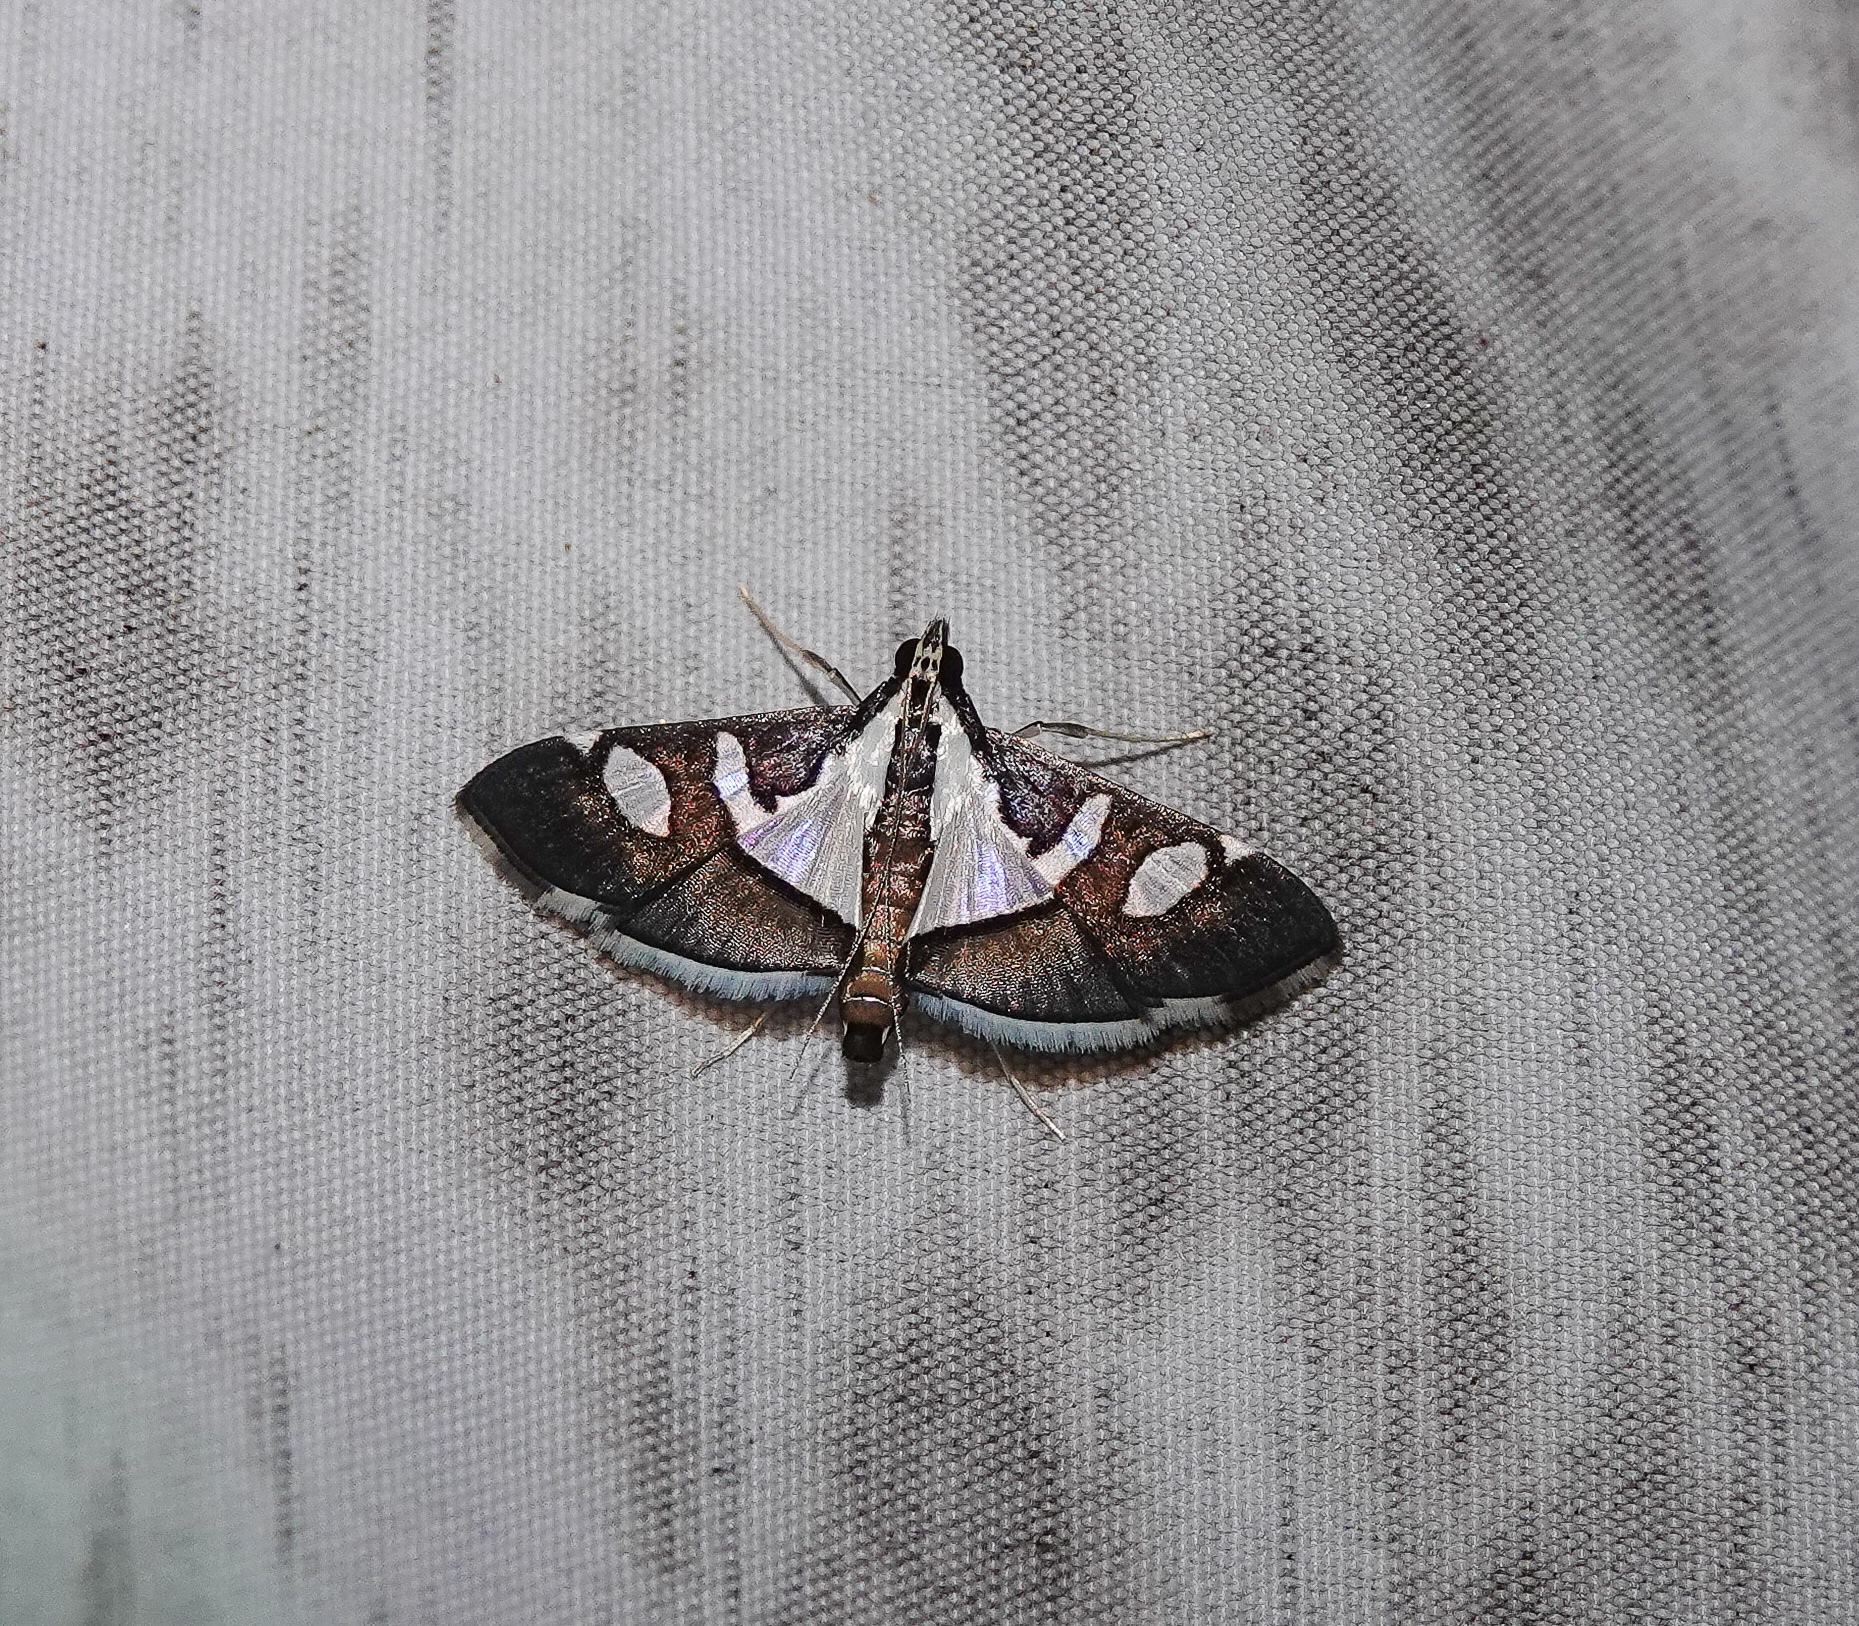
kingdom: Animalia
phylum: Arthropoda
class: Insecta
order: Lepidoptera
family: Crambidae
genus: Glyphodes
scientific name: Glyphodes bicolor
